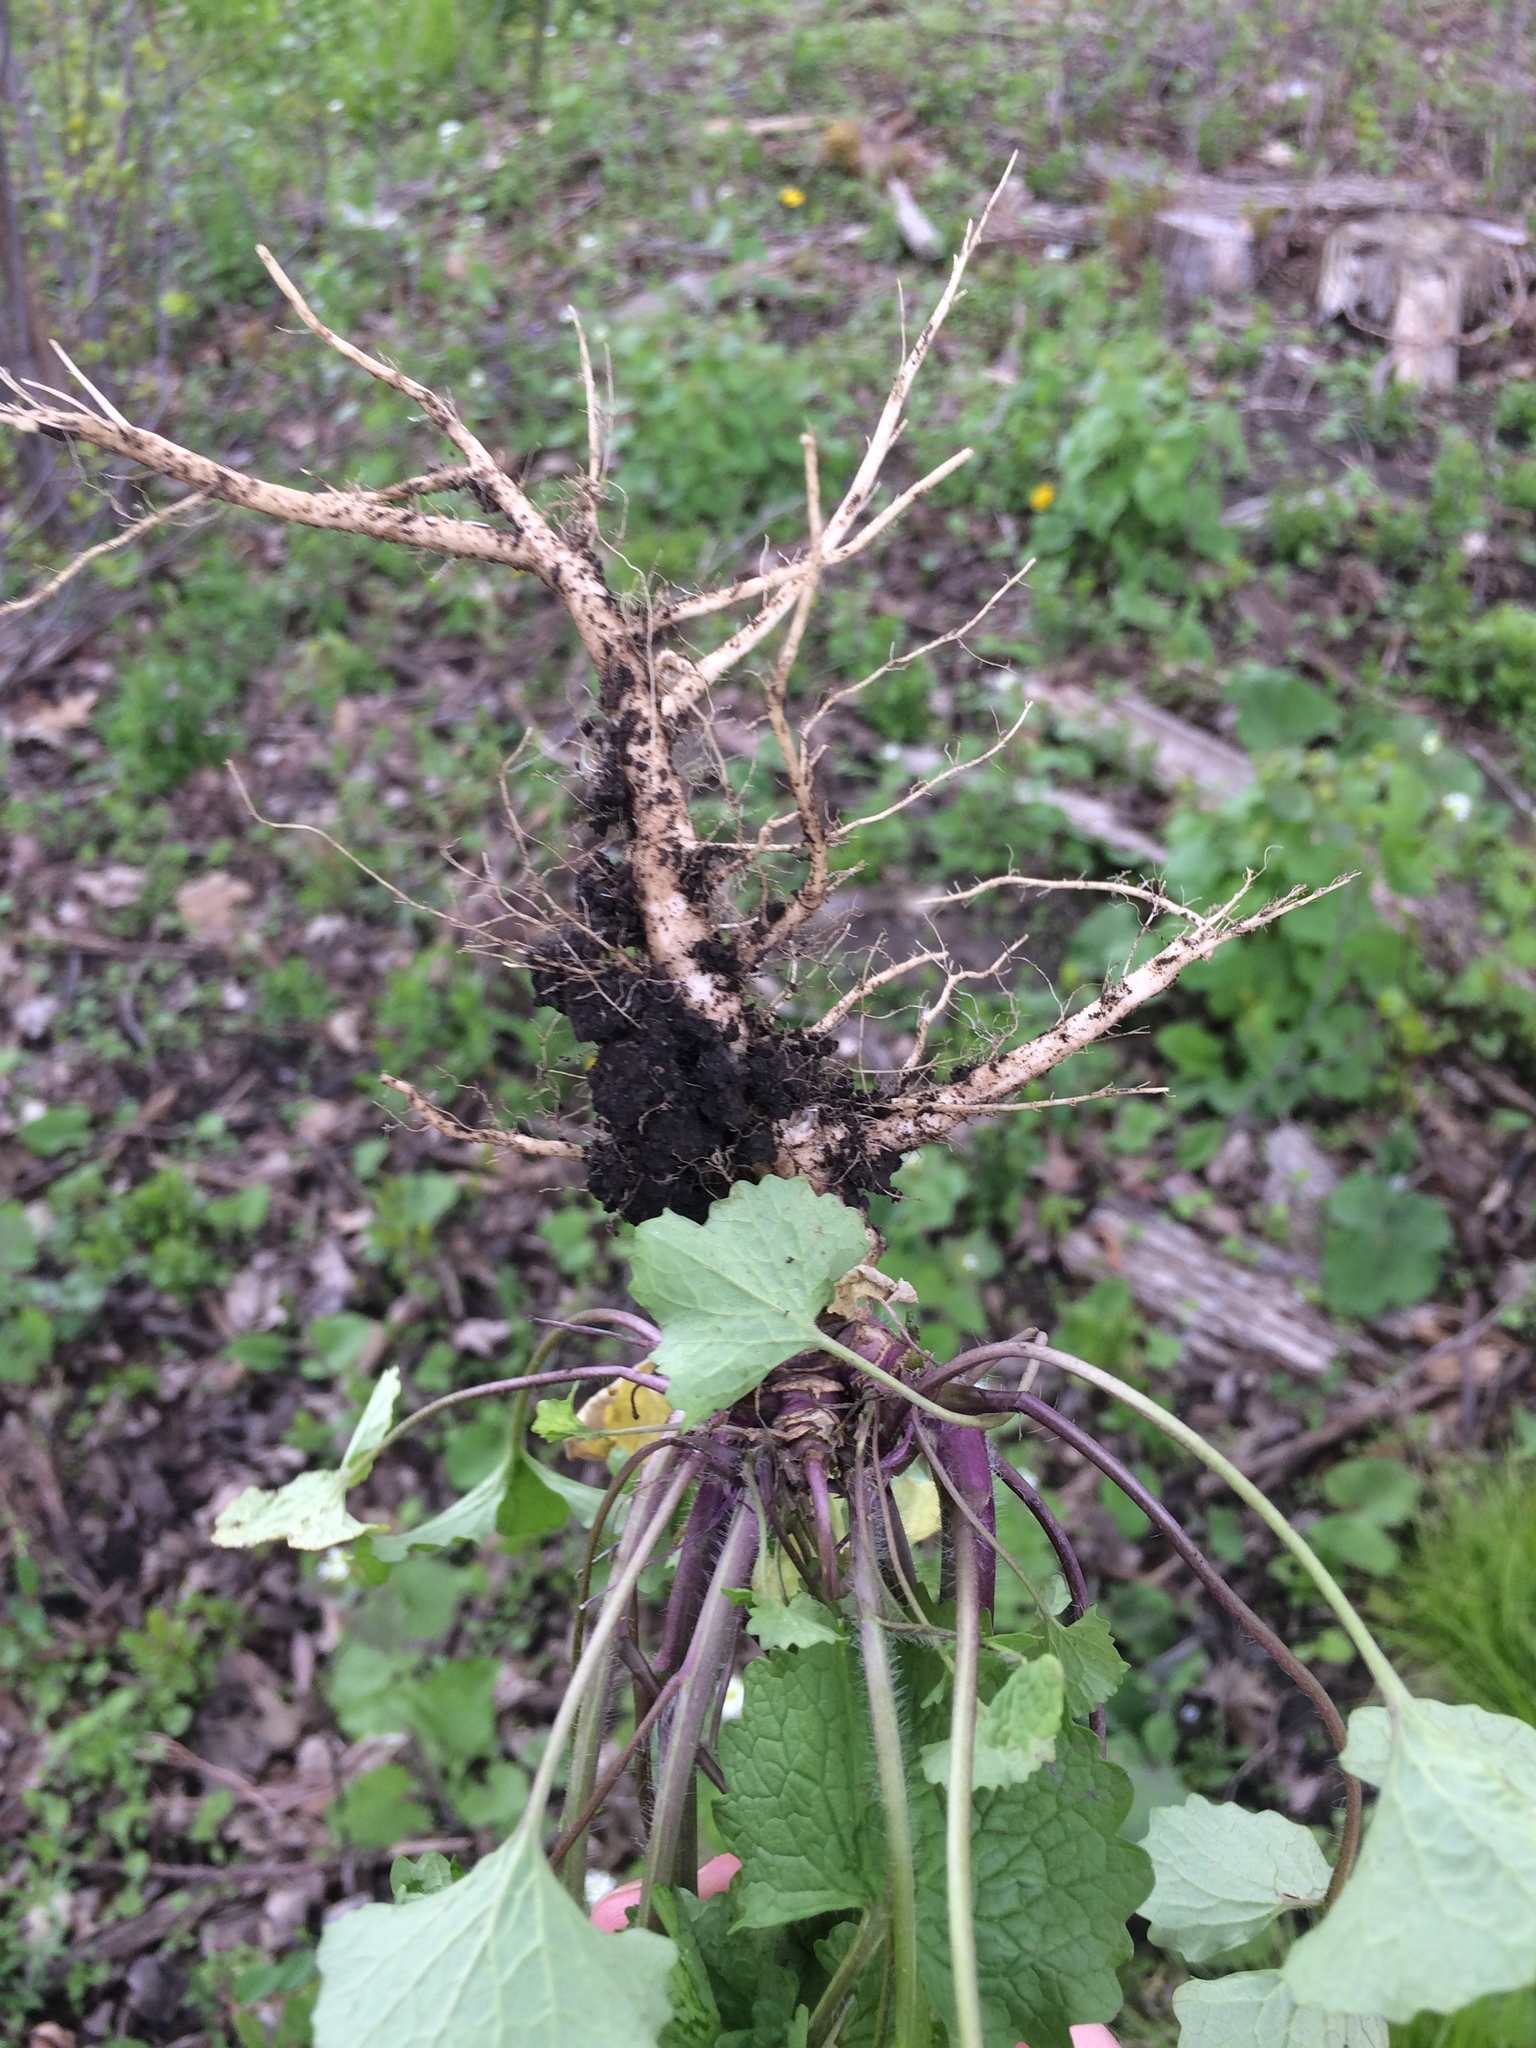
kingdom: Plantae
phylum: Tracheophyta
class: Magnoliopsida
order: Brassicales
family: Brassicaceae
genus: Alliaria
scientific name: Alliaria petiolata
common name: Garlic mustard
